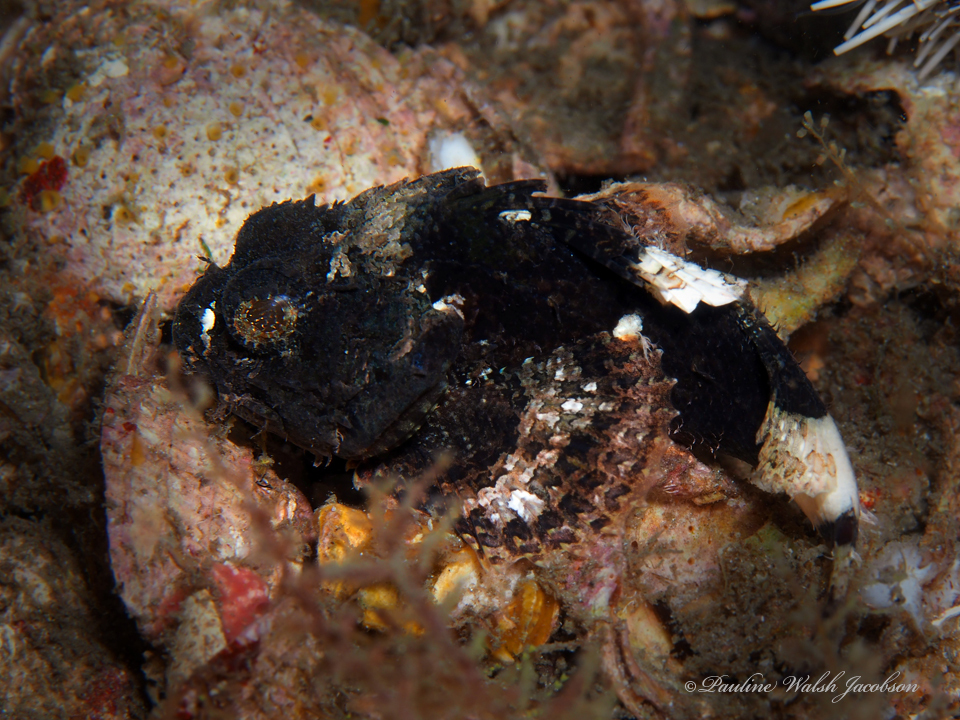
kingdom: Animalia
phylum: Chordata
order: Scorpaeniformes
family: Scorpaenidae
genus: Scorpaena
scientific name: Scorpaena plumieri
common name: Spotted scorpionfish
